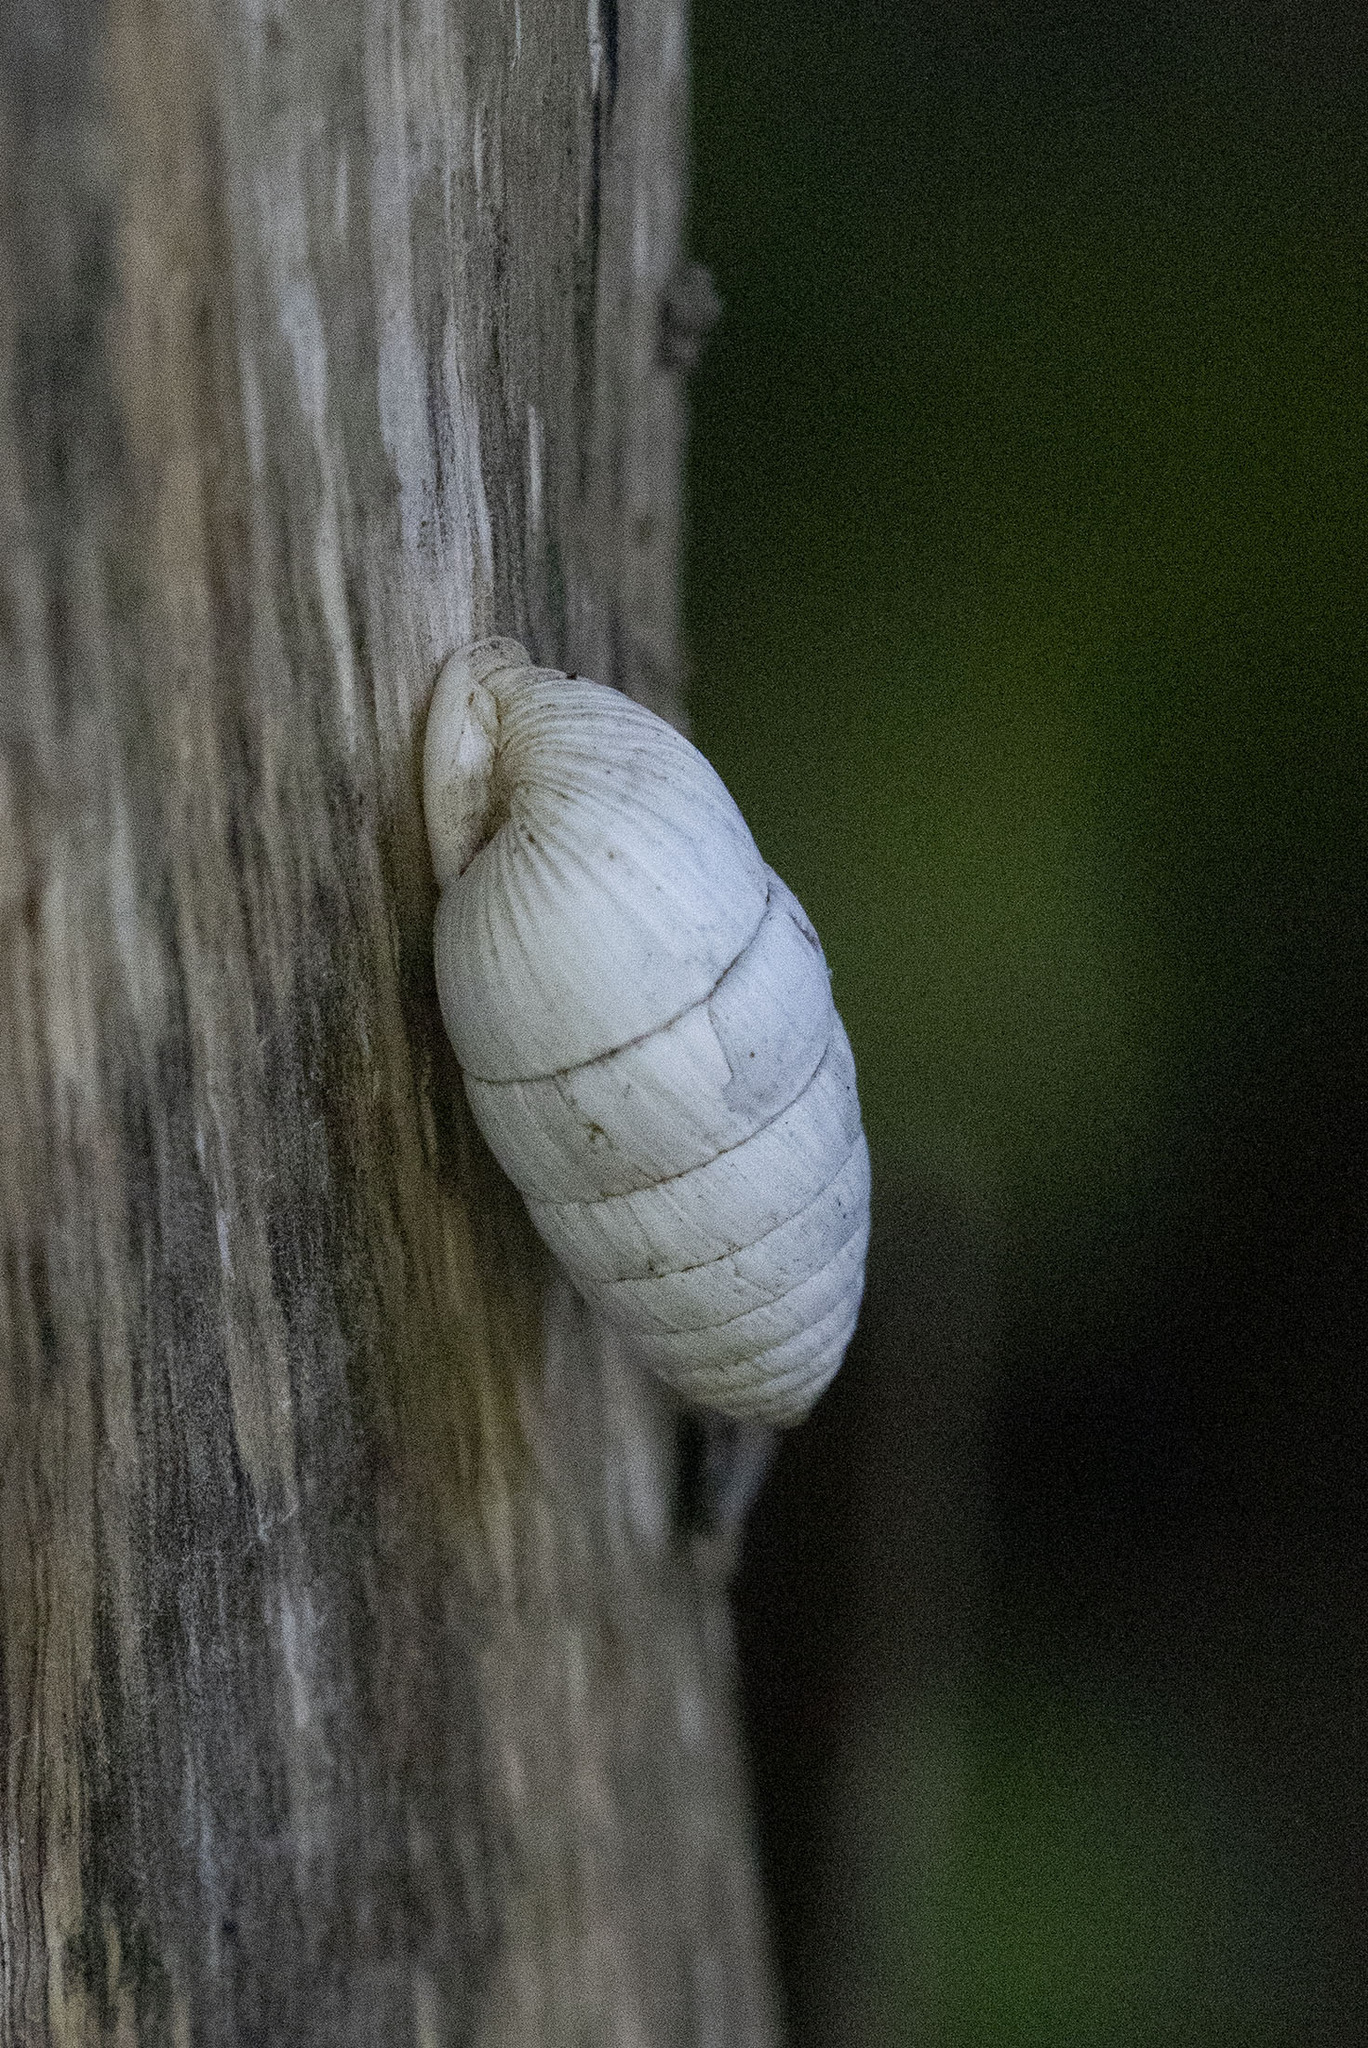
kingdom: Animalia
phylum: Mollusca
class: Gastropoda
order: Stylommatophora
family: Cerionidae
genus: Cerion
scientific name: Cerion incanum
